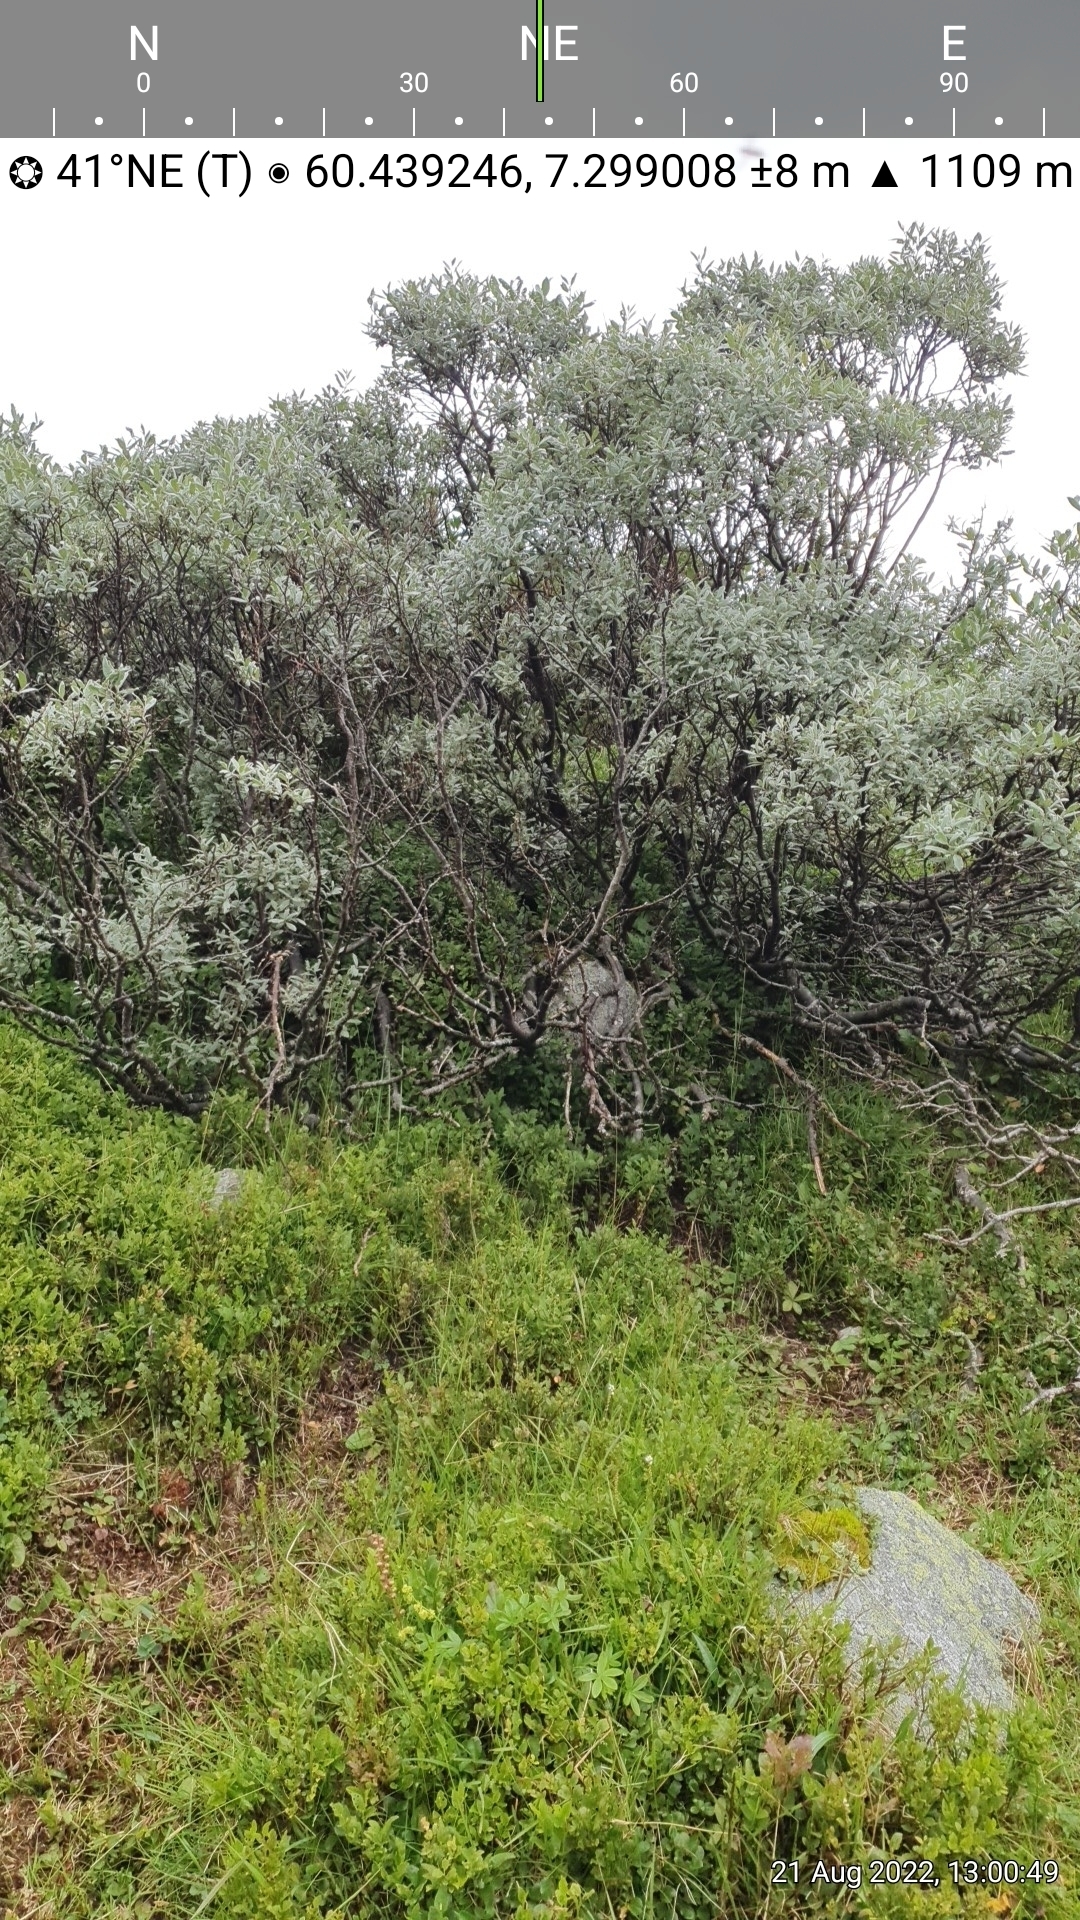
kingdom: Plantae
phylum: Tracheophyta
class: Magnoliopsida
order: Malpighiales
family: Salicaceae
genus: Salix
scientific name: Salix lapponum
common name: Downy willow
